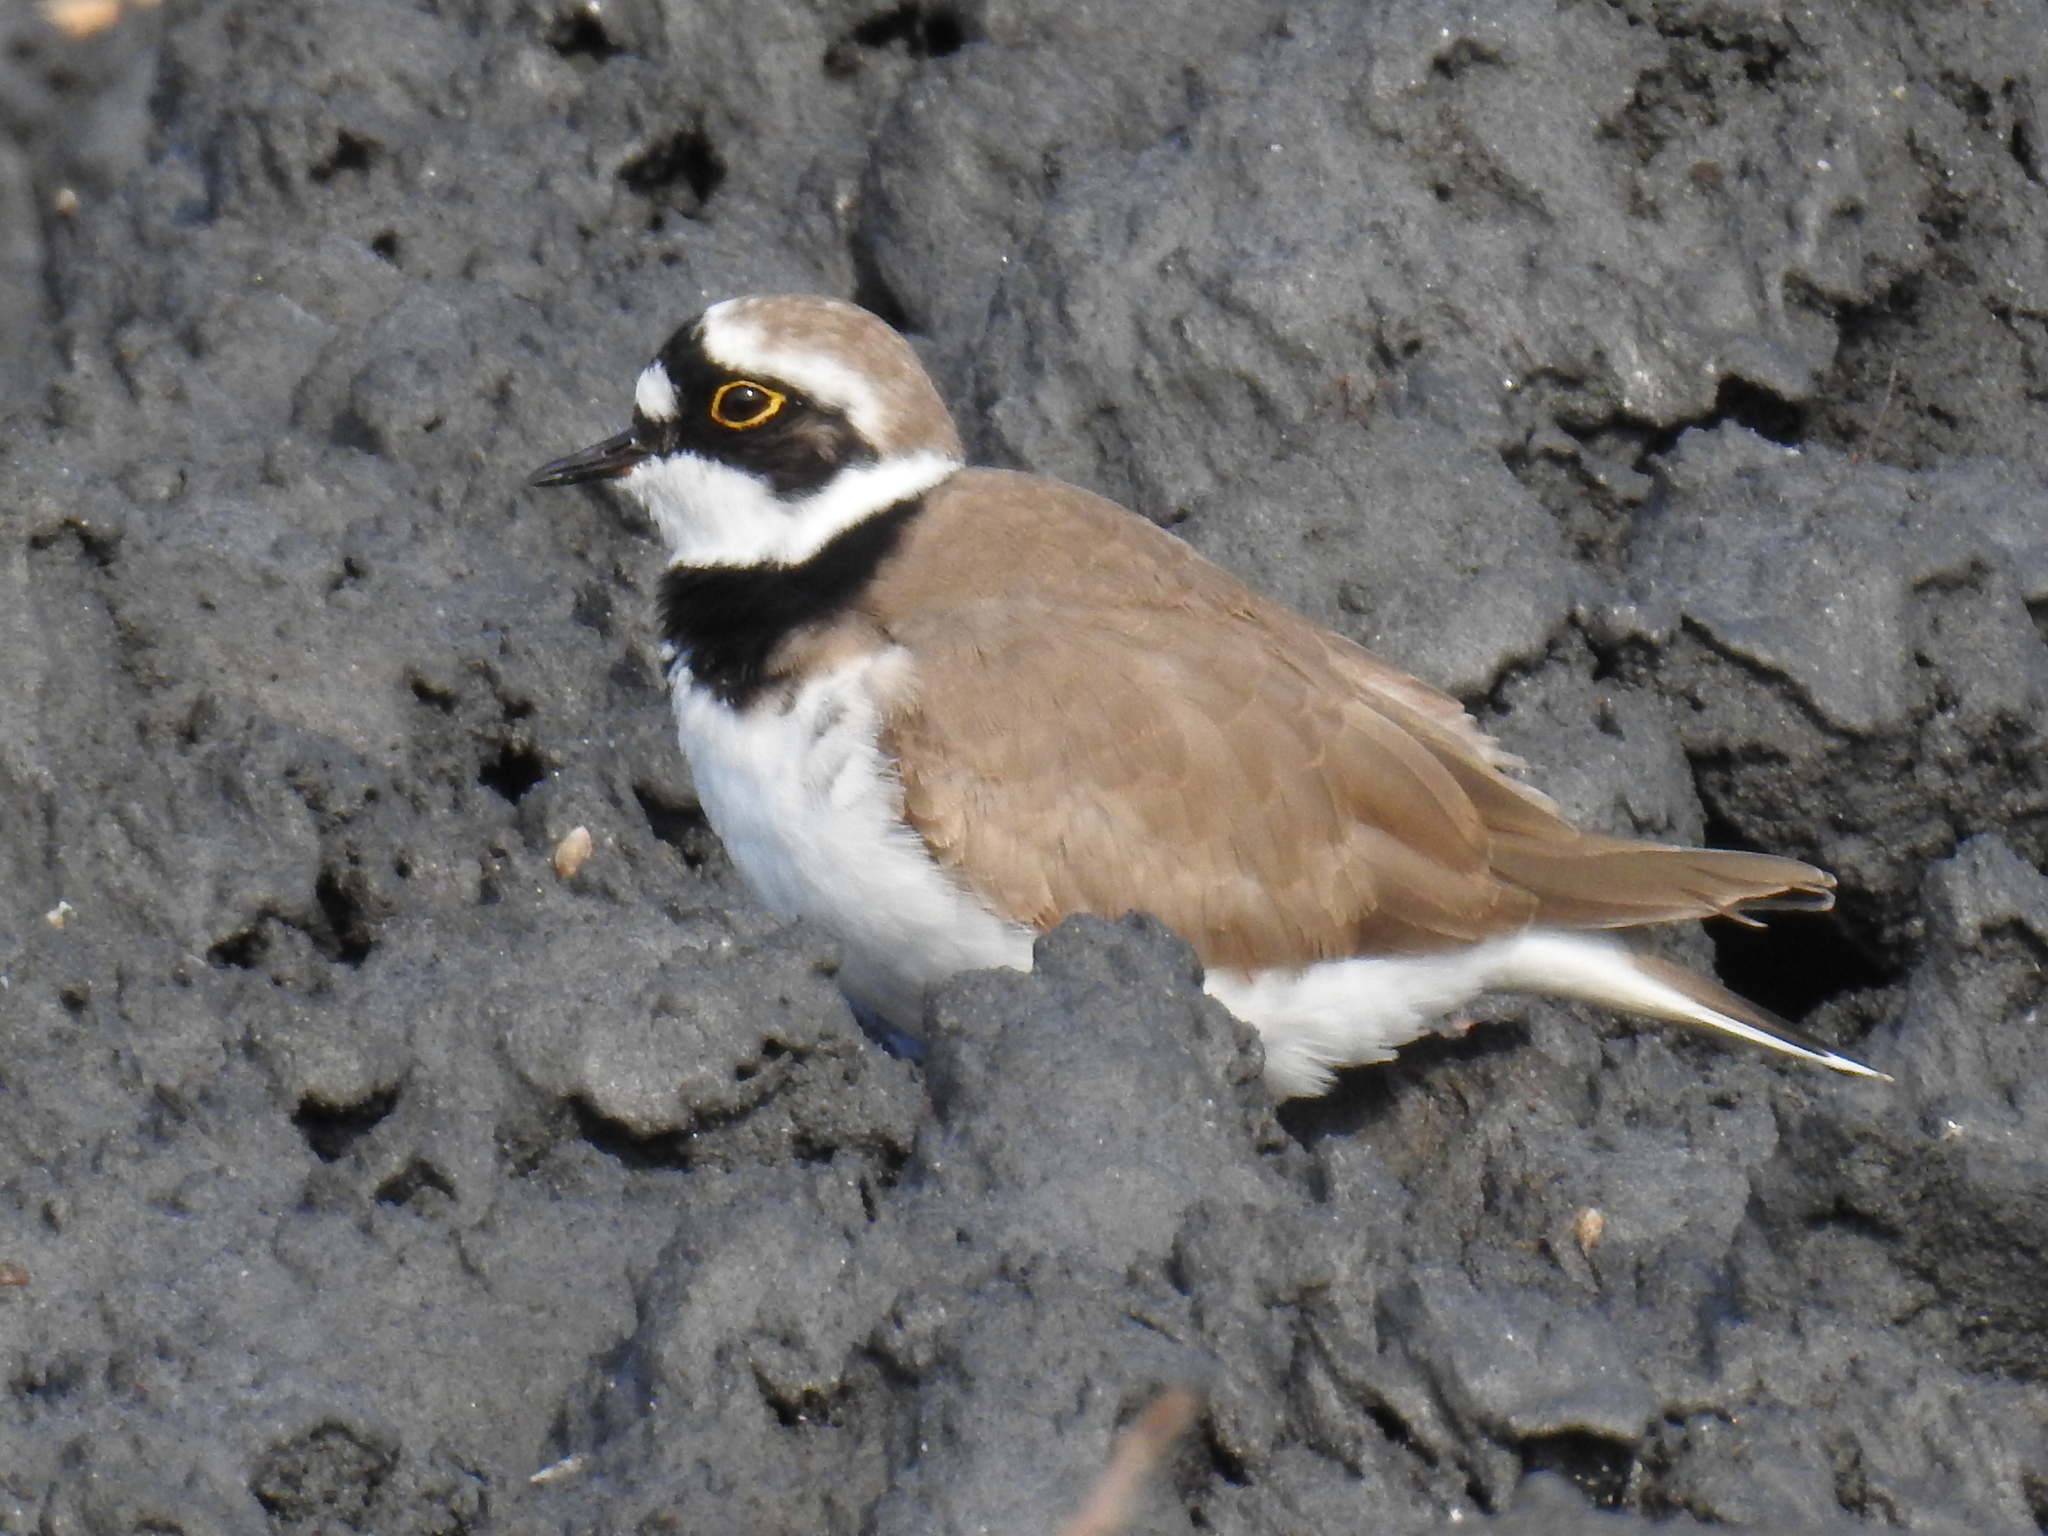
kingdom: Animalia
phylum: Chordata
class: Aves
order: Charadriiformes
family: Charadriidae
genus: Charadrius
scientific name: Charadrius dubius
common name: Little ringed plover
